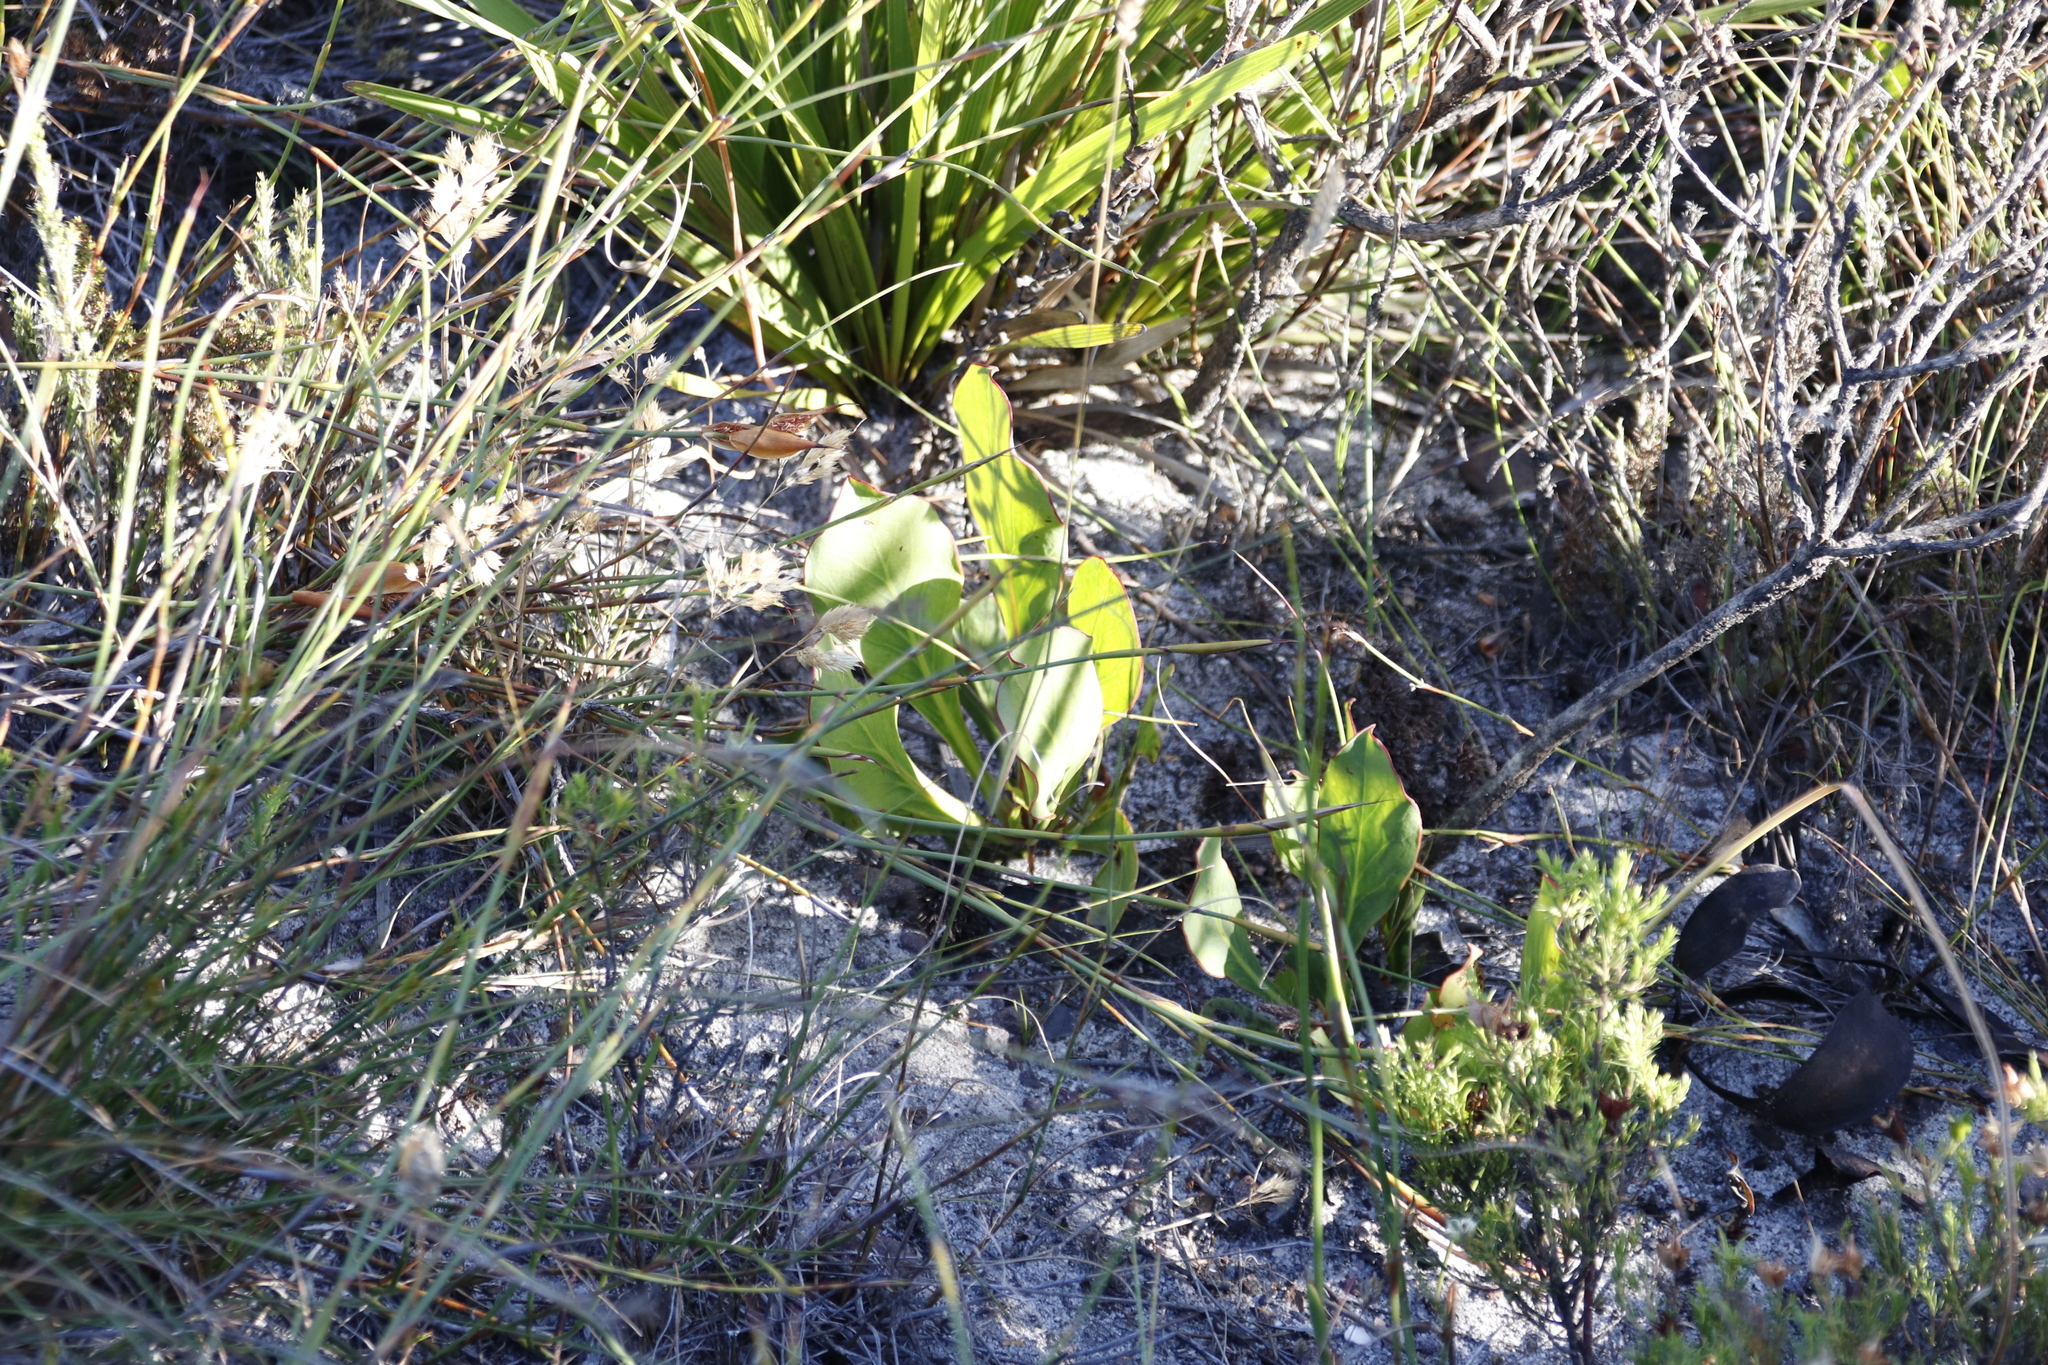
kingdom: Plantae
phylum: Tracheophyta
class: Magnoliopsida
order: Proteales
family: Proteaceae
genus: Protea
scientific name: Protea acaulos
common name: Common ground sugarbush
